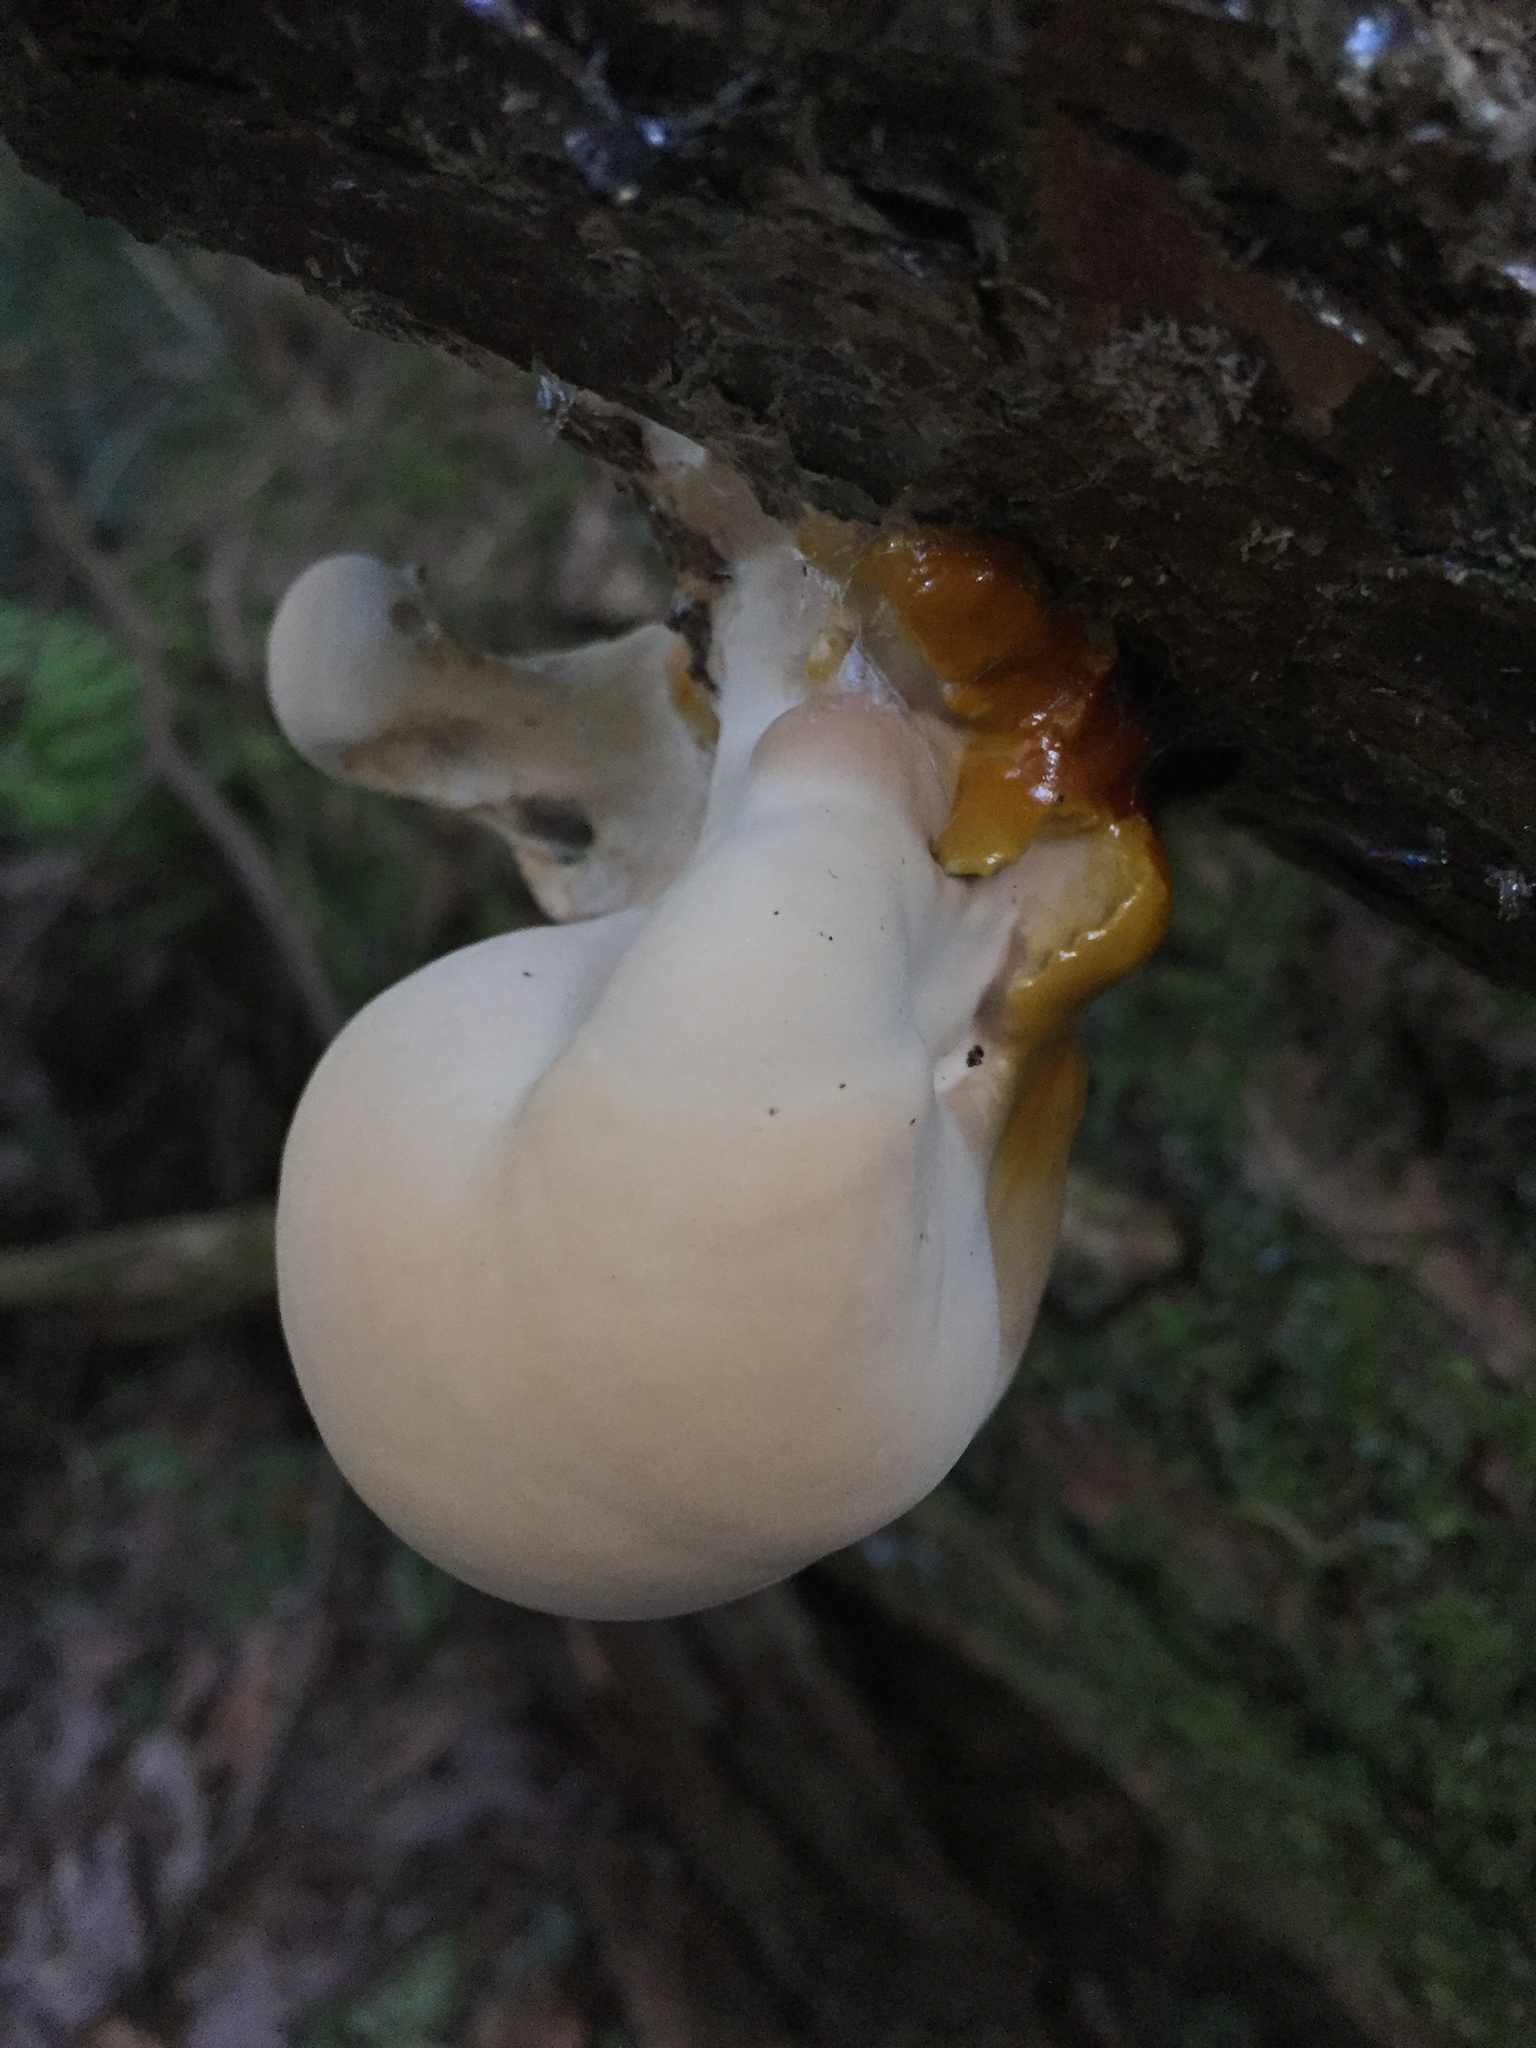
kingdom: Fungi
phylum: Basidiomycota
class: Agaricomycetes
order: Polyporales
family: Polyporaceae
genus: Ganoderma
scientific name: Ganoderma tsugae
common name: Hemlock varnish shelf
